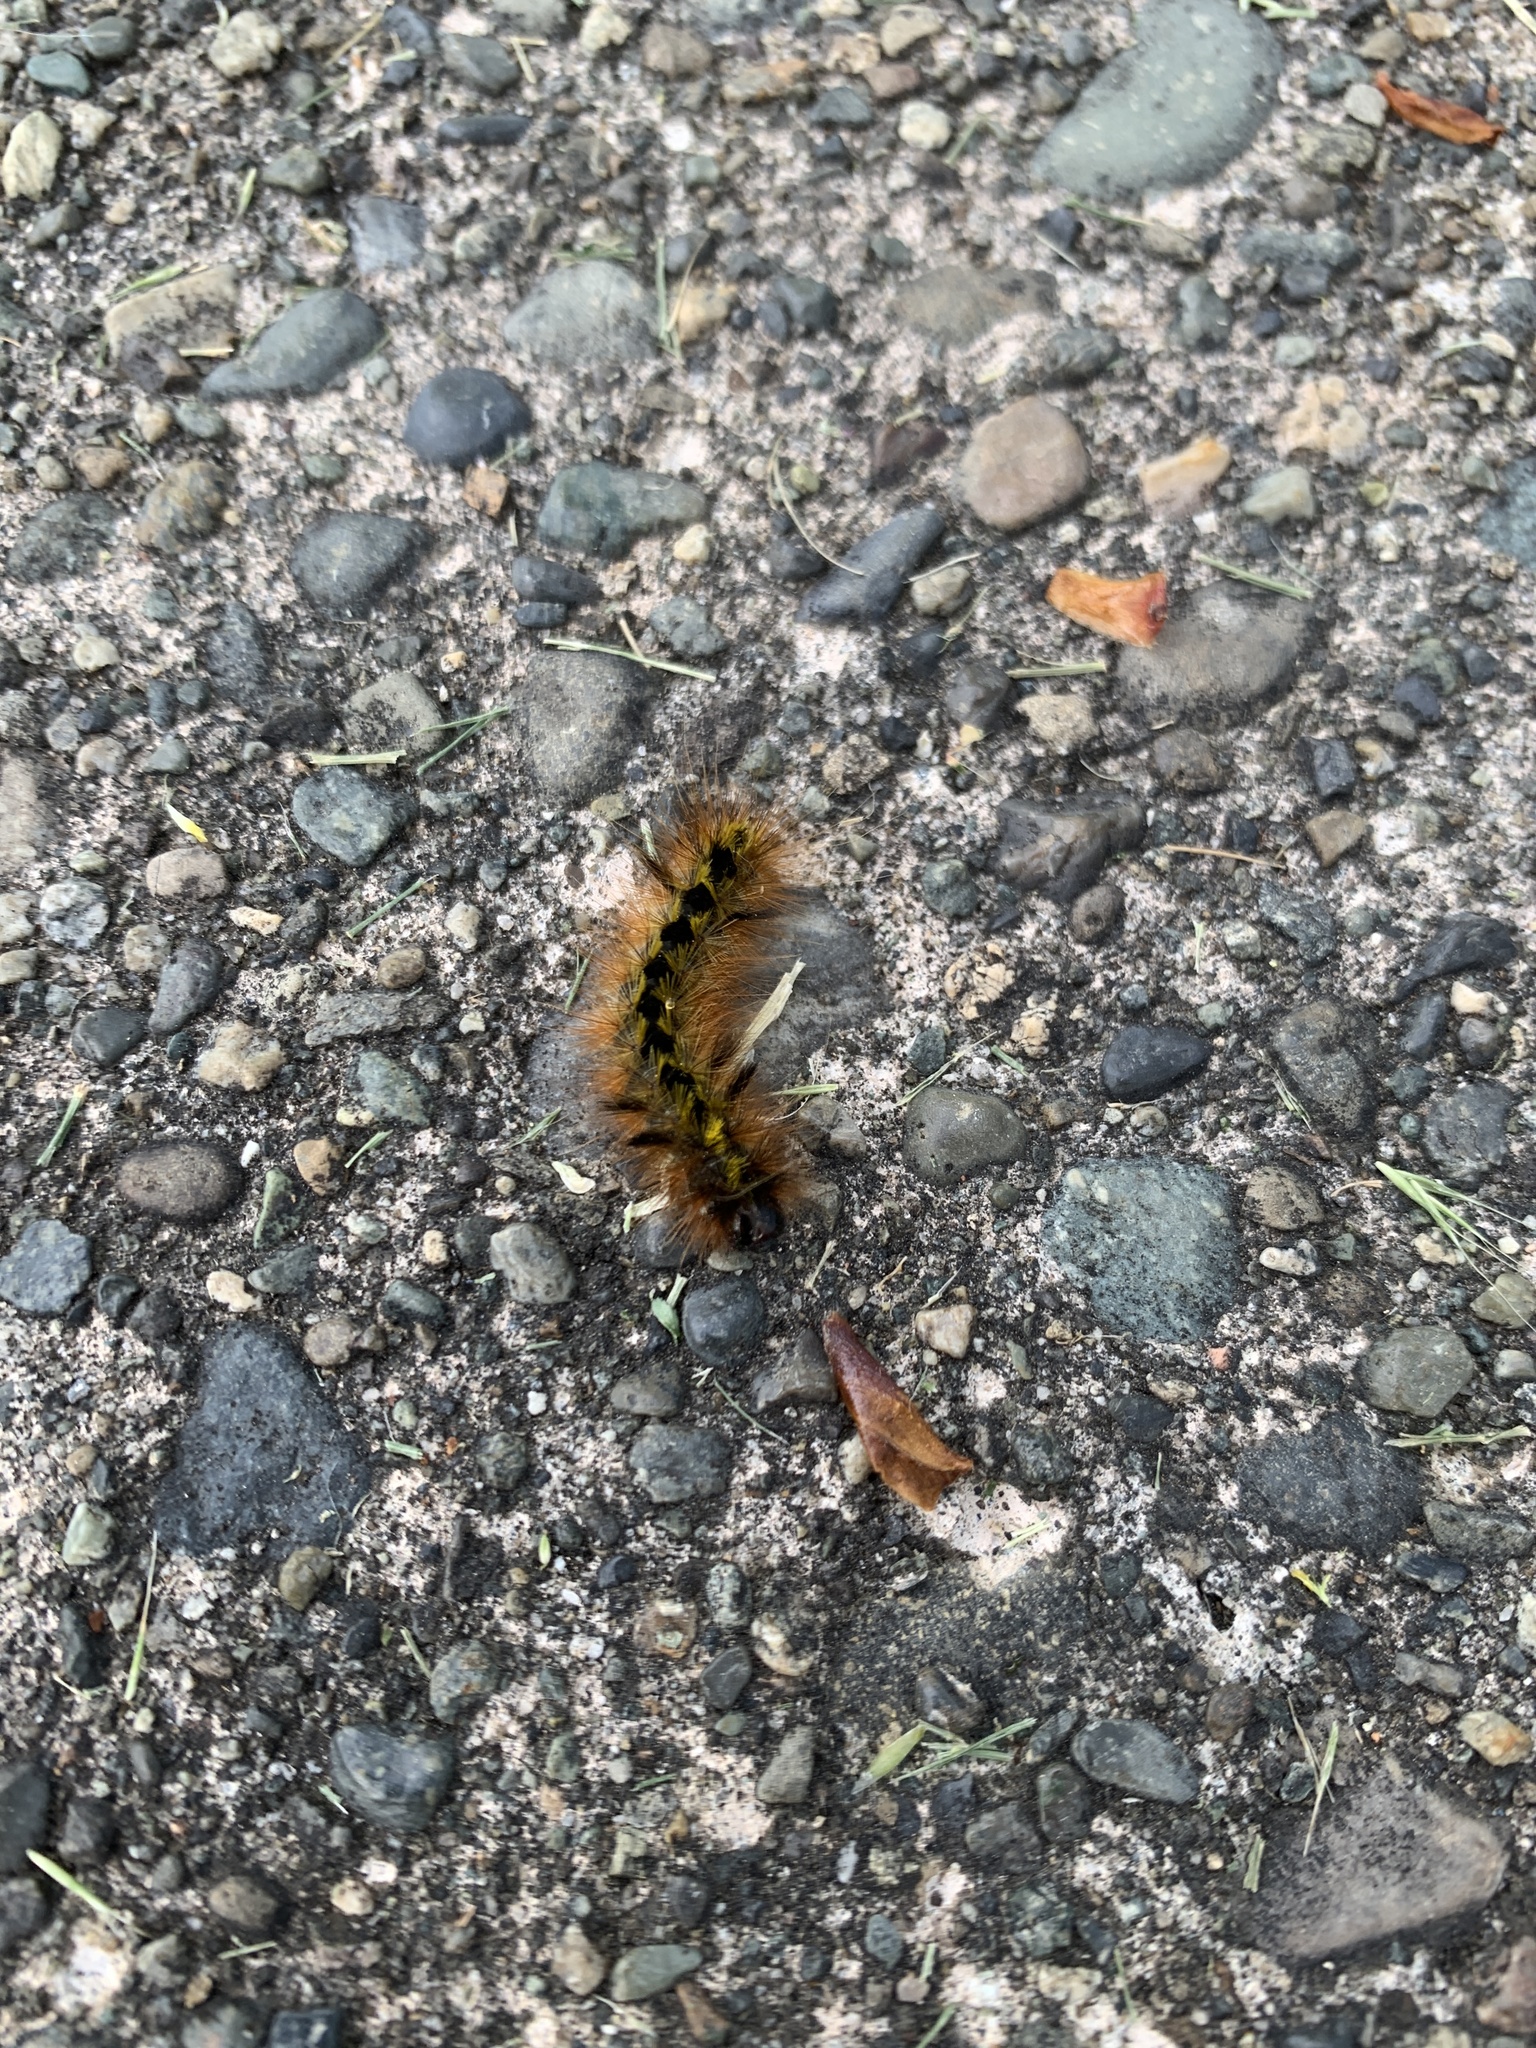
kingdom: Animalia
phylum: Arthropoda
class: Insecta
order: Lepidoptera
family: Erebidae
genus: Lophocampa
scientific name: Lophocampa argentata
